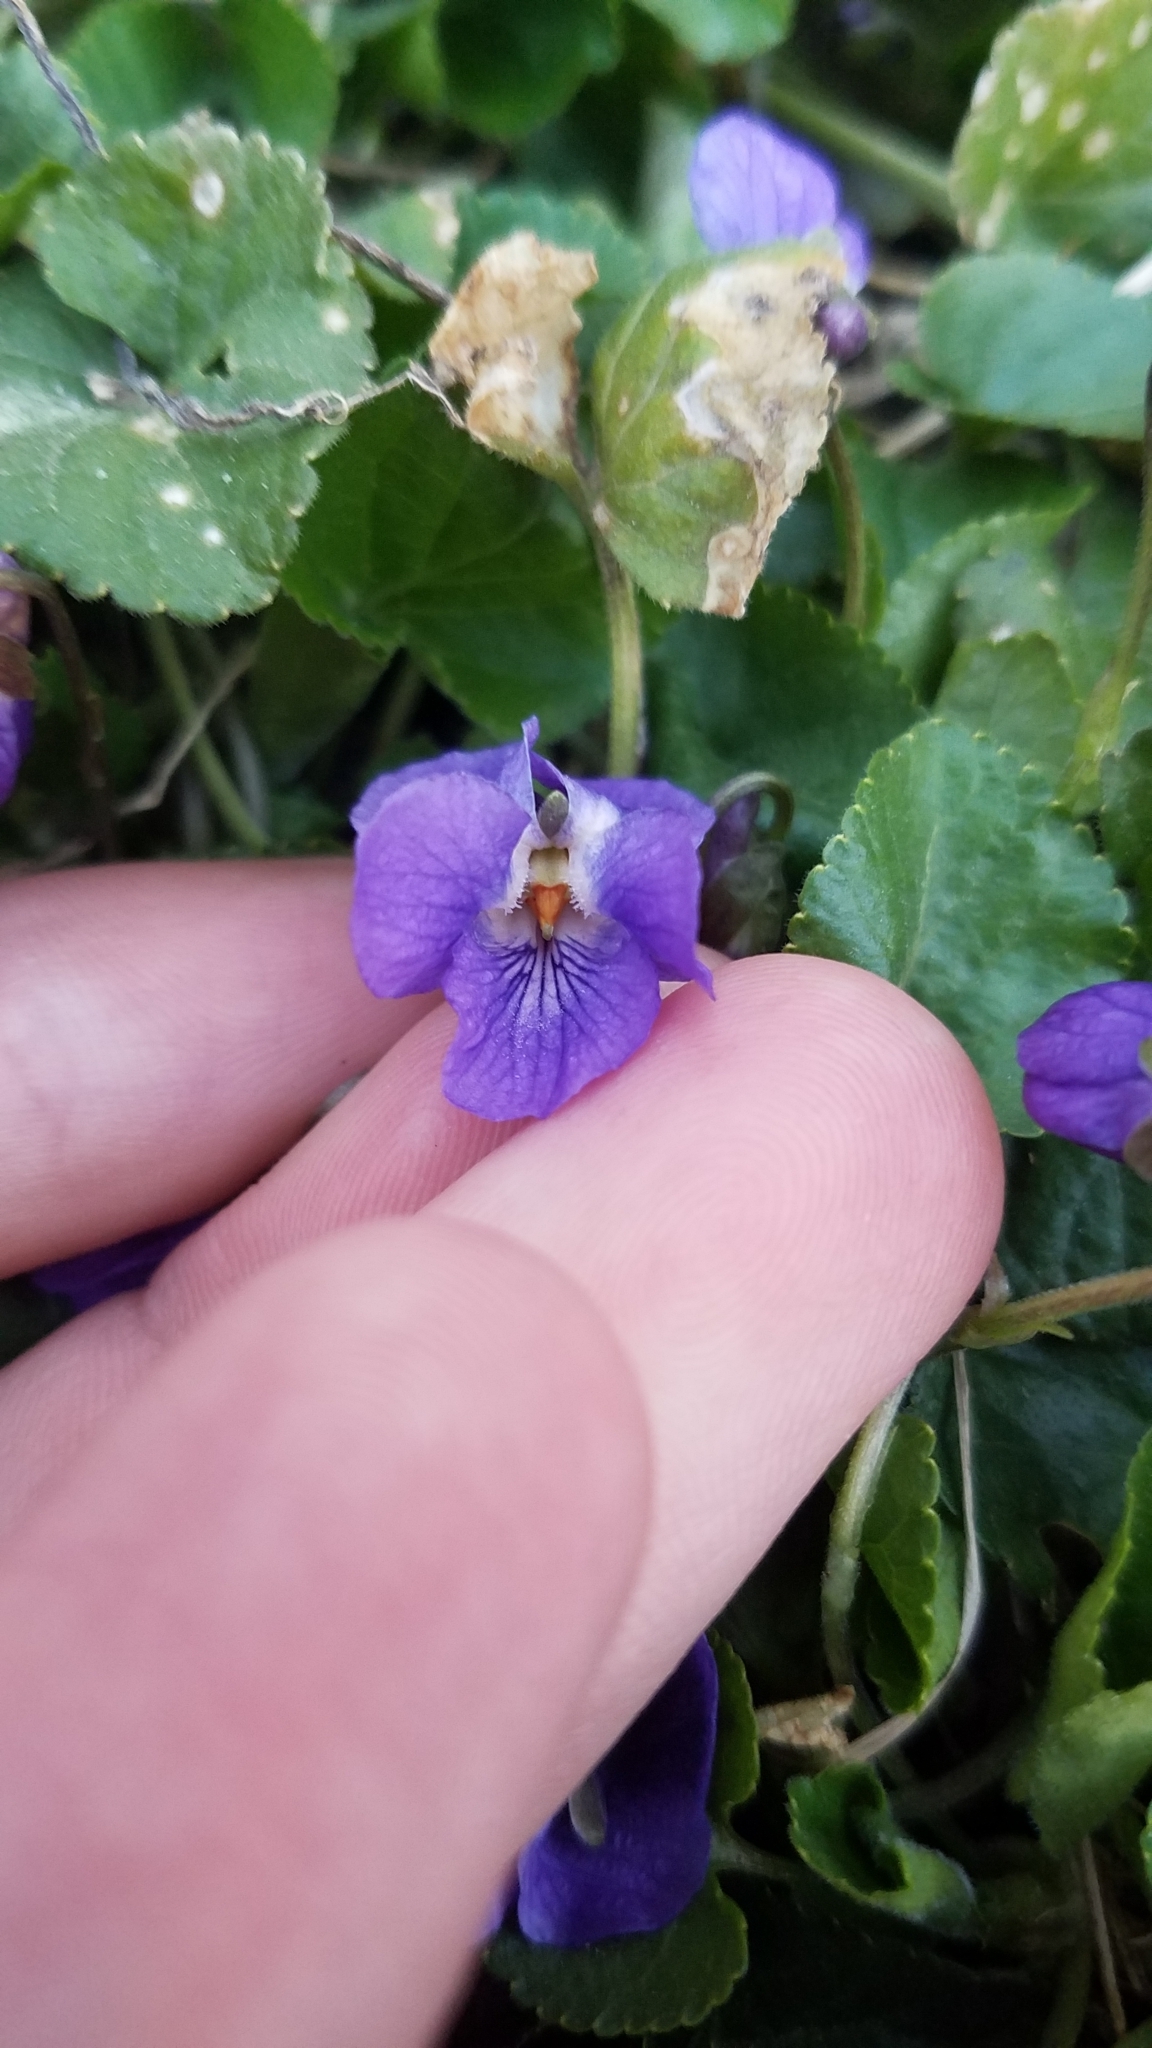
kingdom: Plantae
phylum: Tracheophyta
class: Magnoliopsida
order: Malpighiales
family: Violaceae
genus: Viola
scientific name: Viola odorata
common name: Sweet violet
